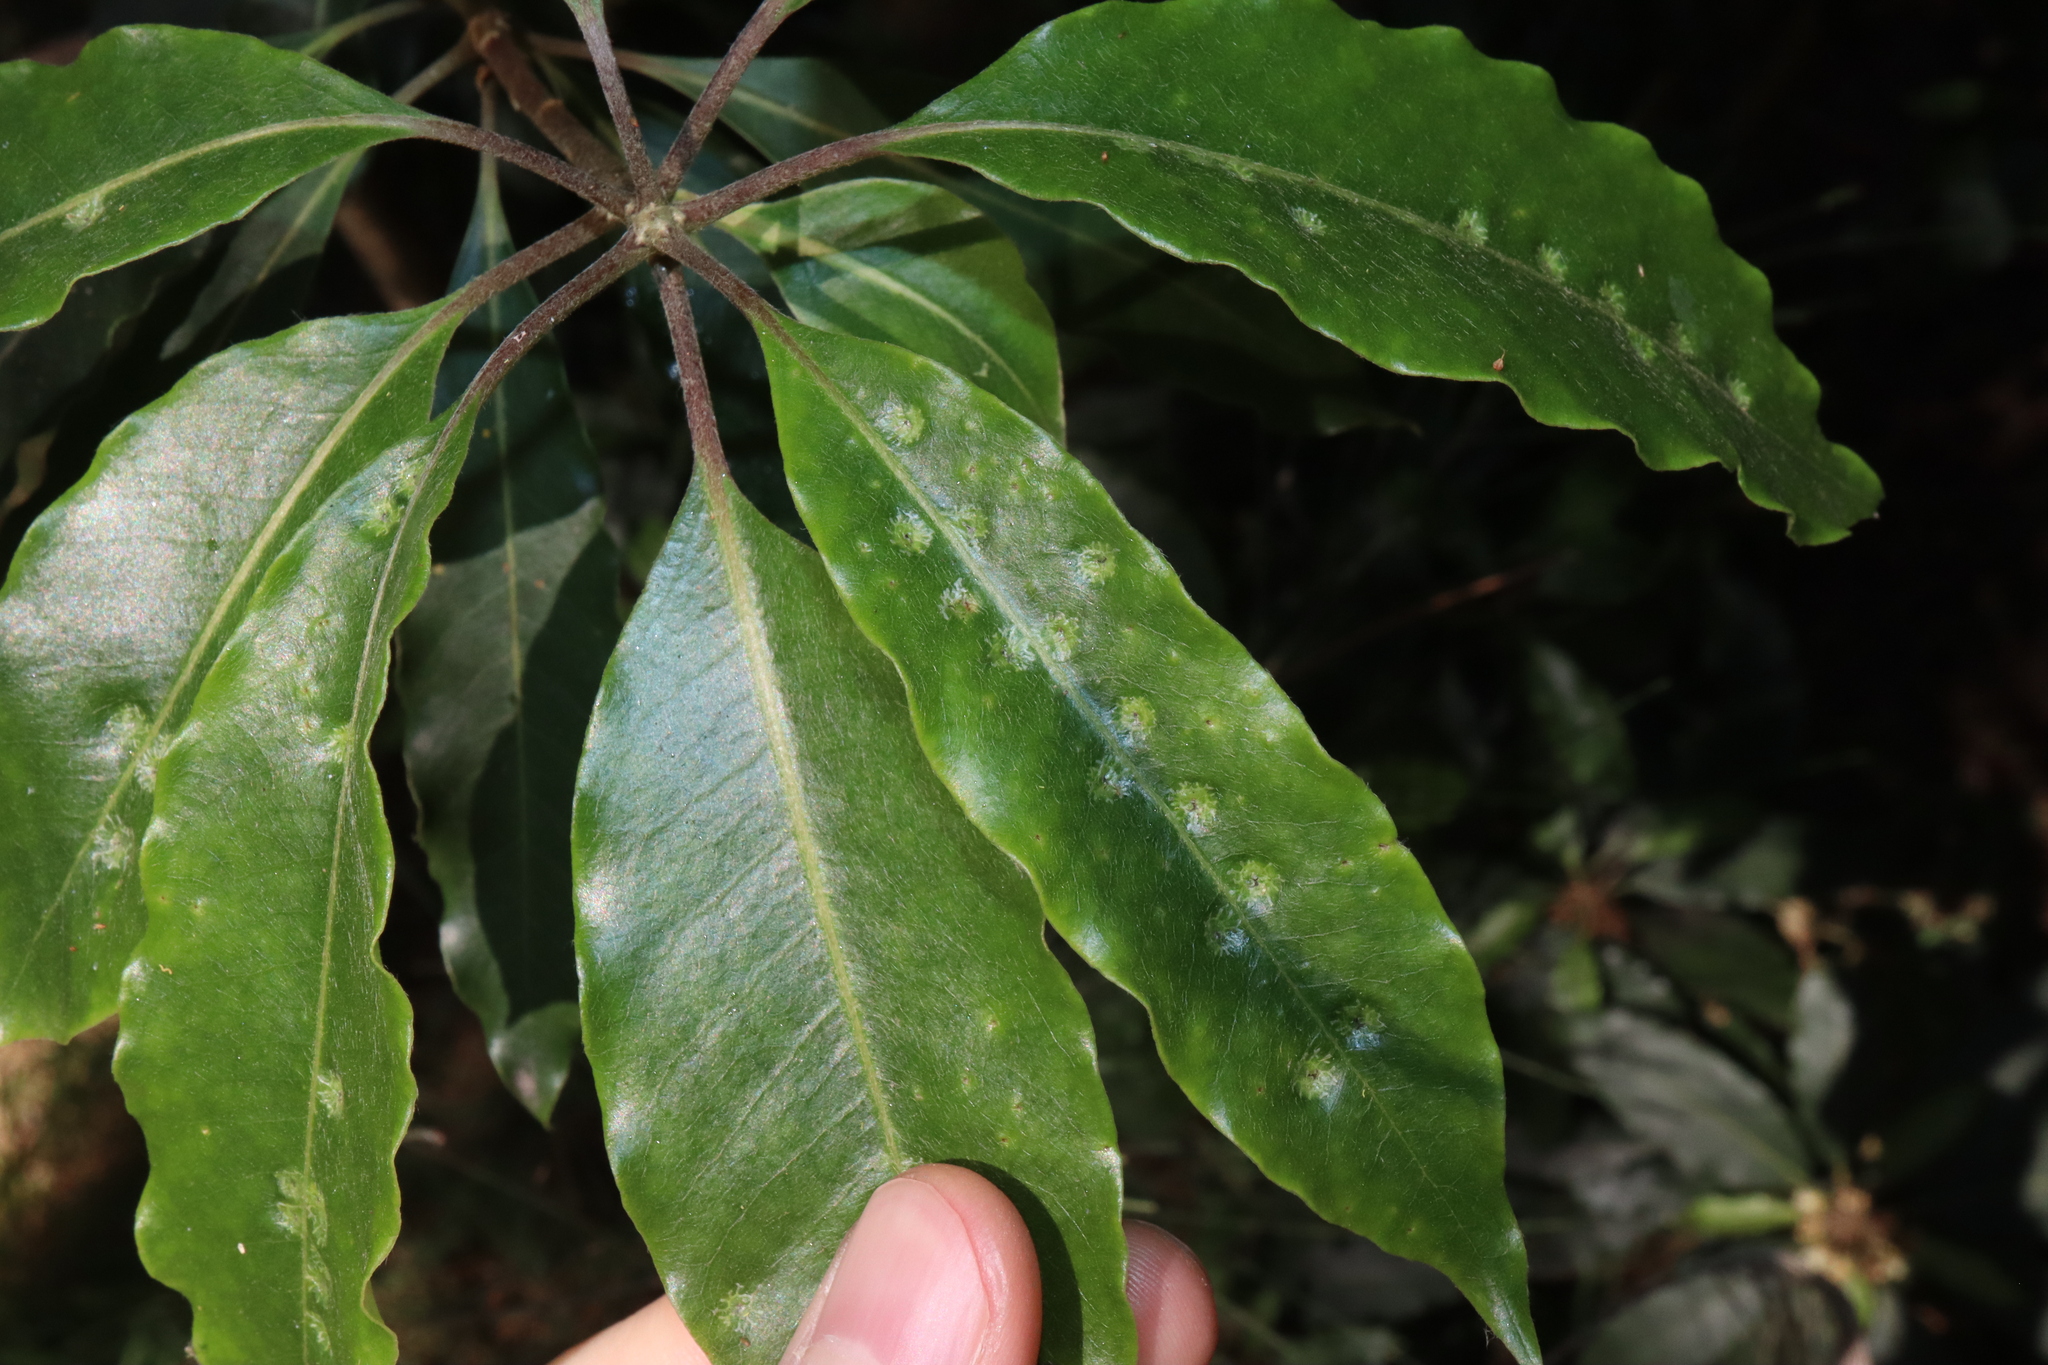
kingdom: Animalia
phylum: Arthropoda
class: Insecta
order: Diptera
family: Agromyzidae
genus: Phytoliriomyza
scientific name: Phytoliriomyza pittosporophylli
